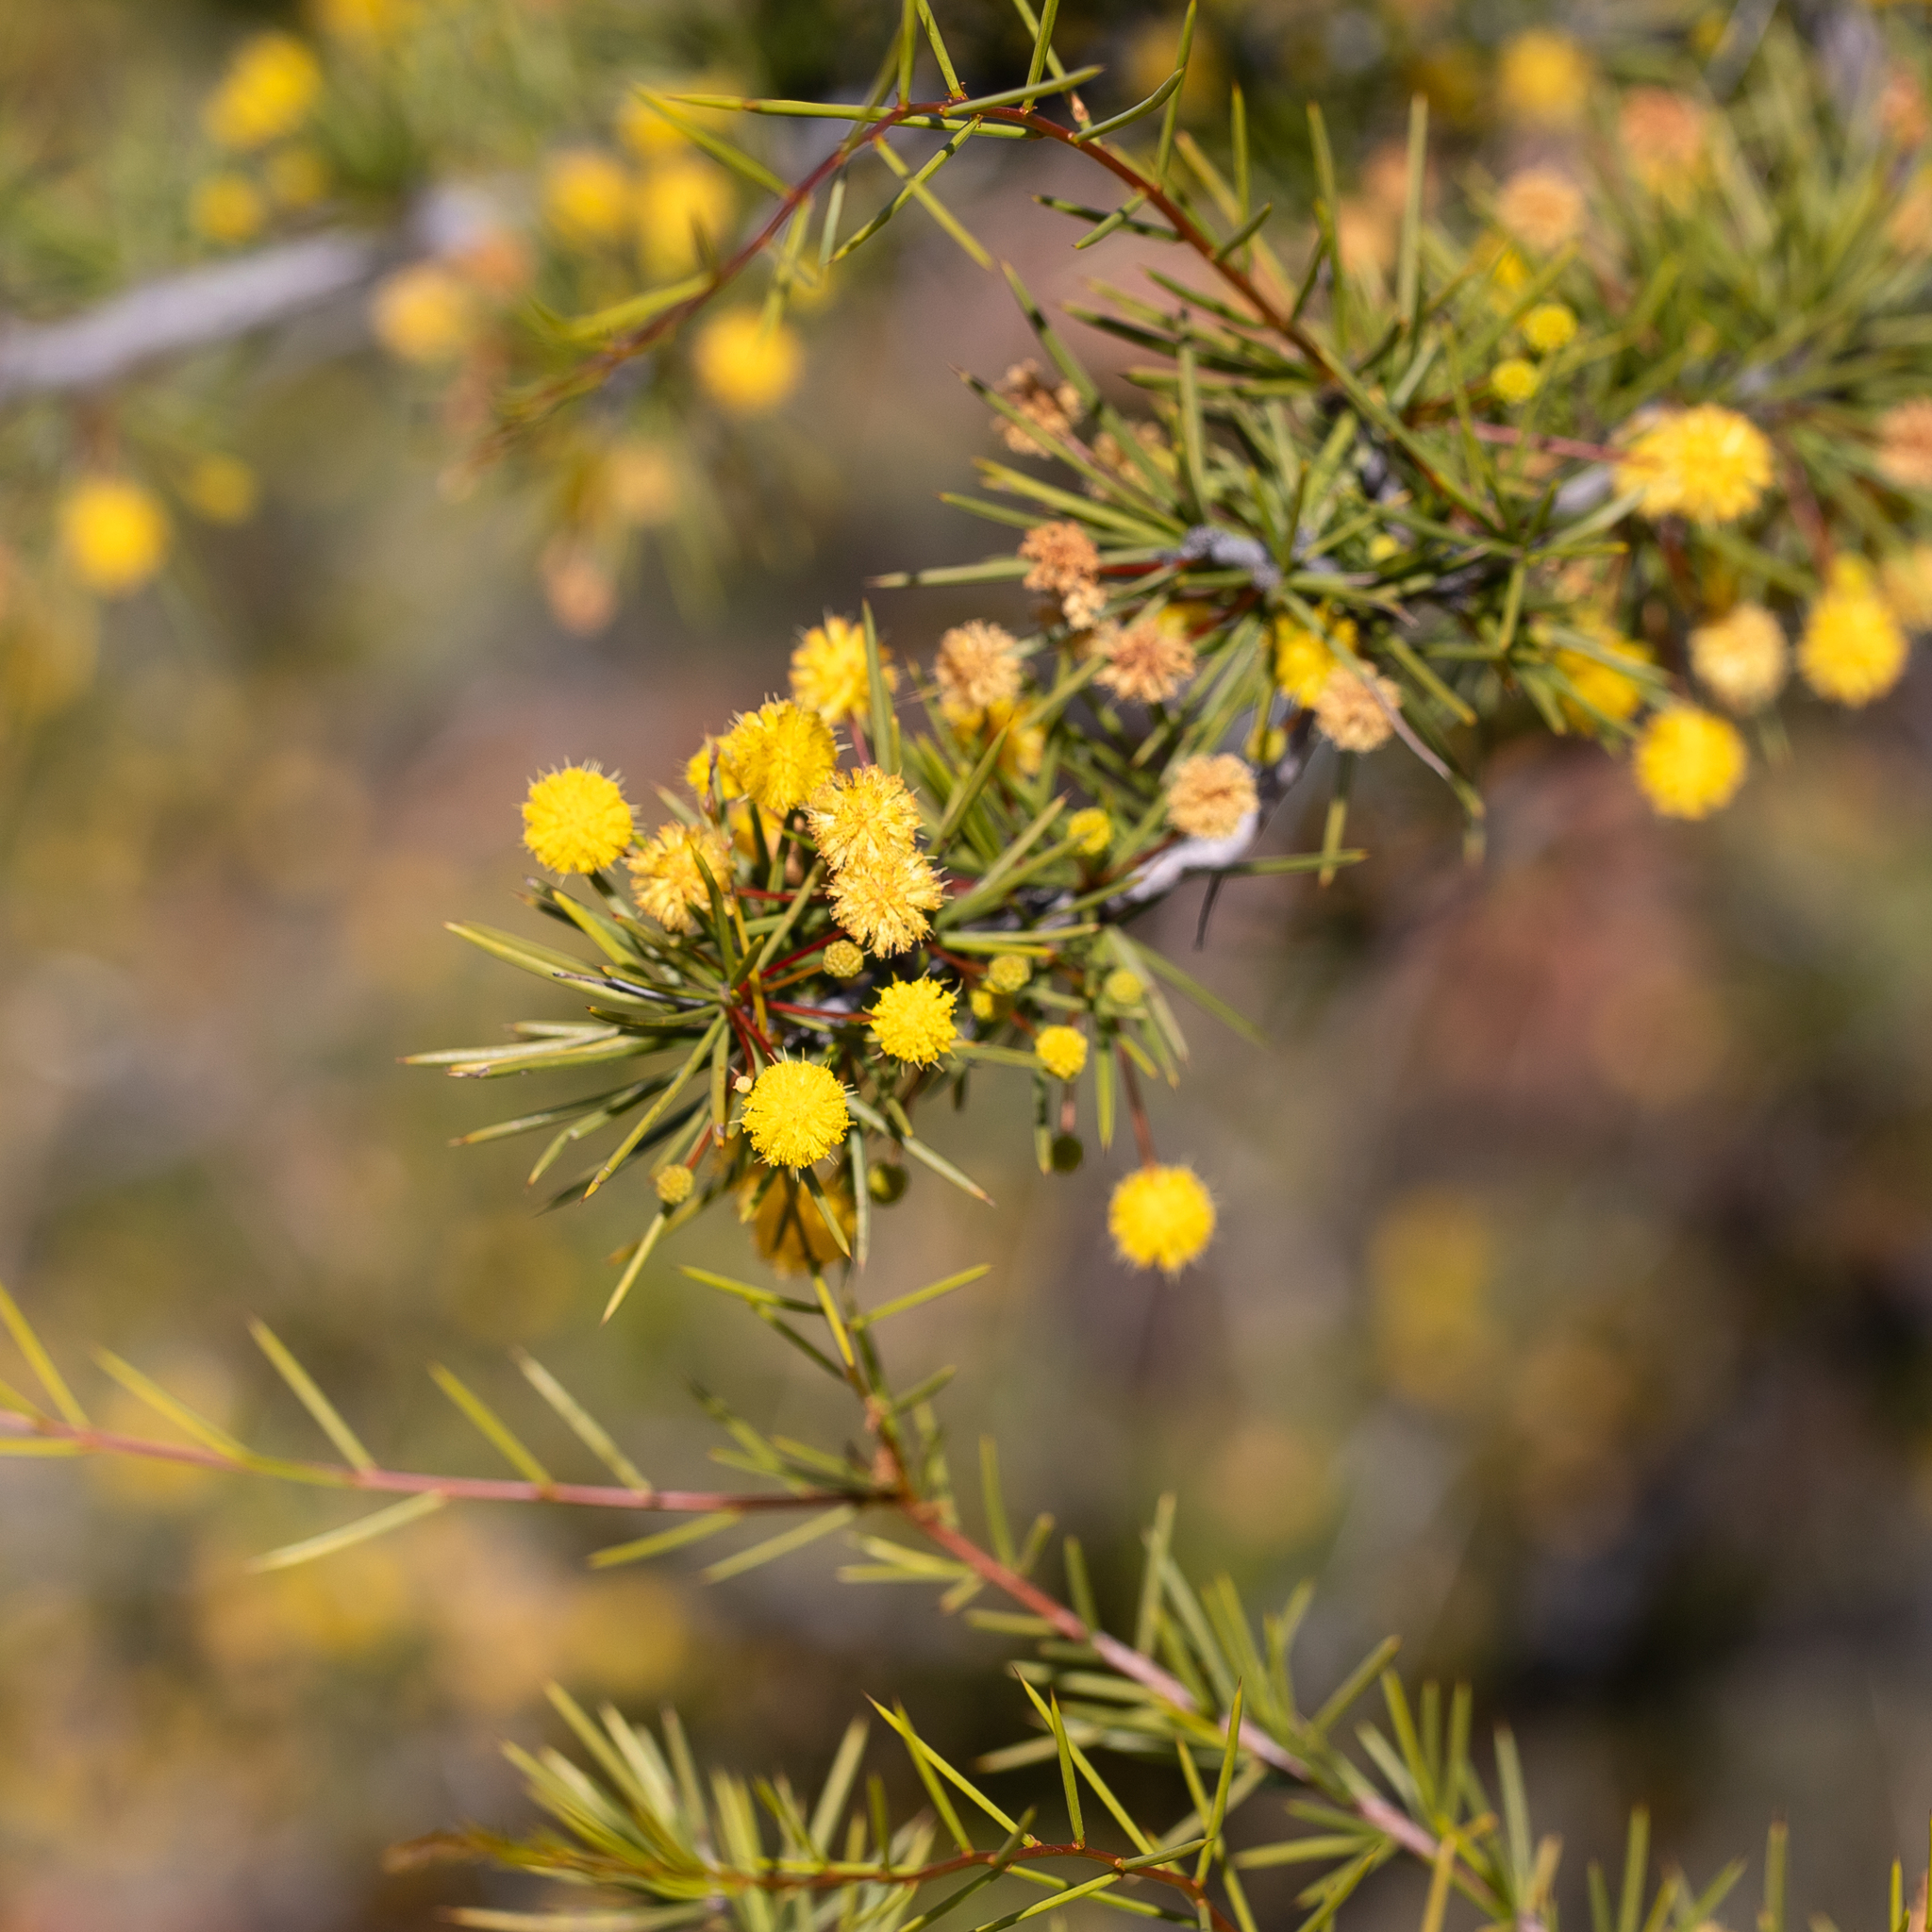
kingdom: Plantae
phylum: Tracheophyta
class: Magnoliopsida
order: Fabales
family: Fabaceae
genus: Acacia
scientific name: Acacia tetragonophylla
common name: Dead finish
